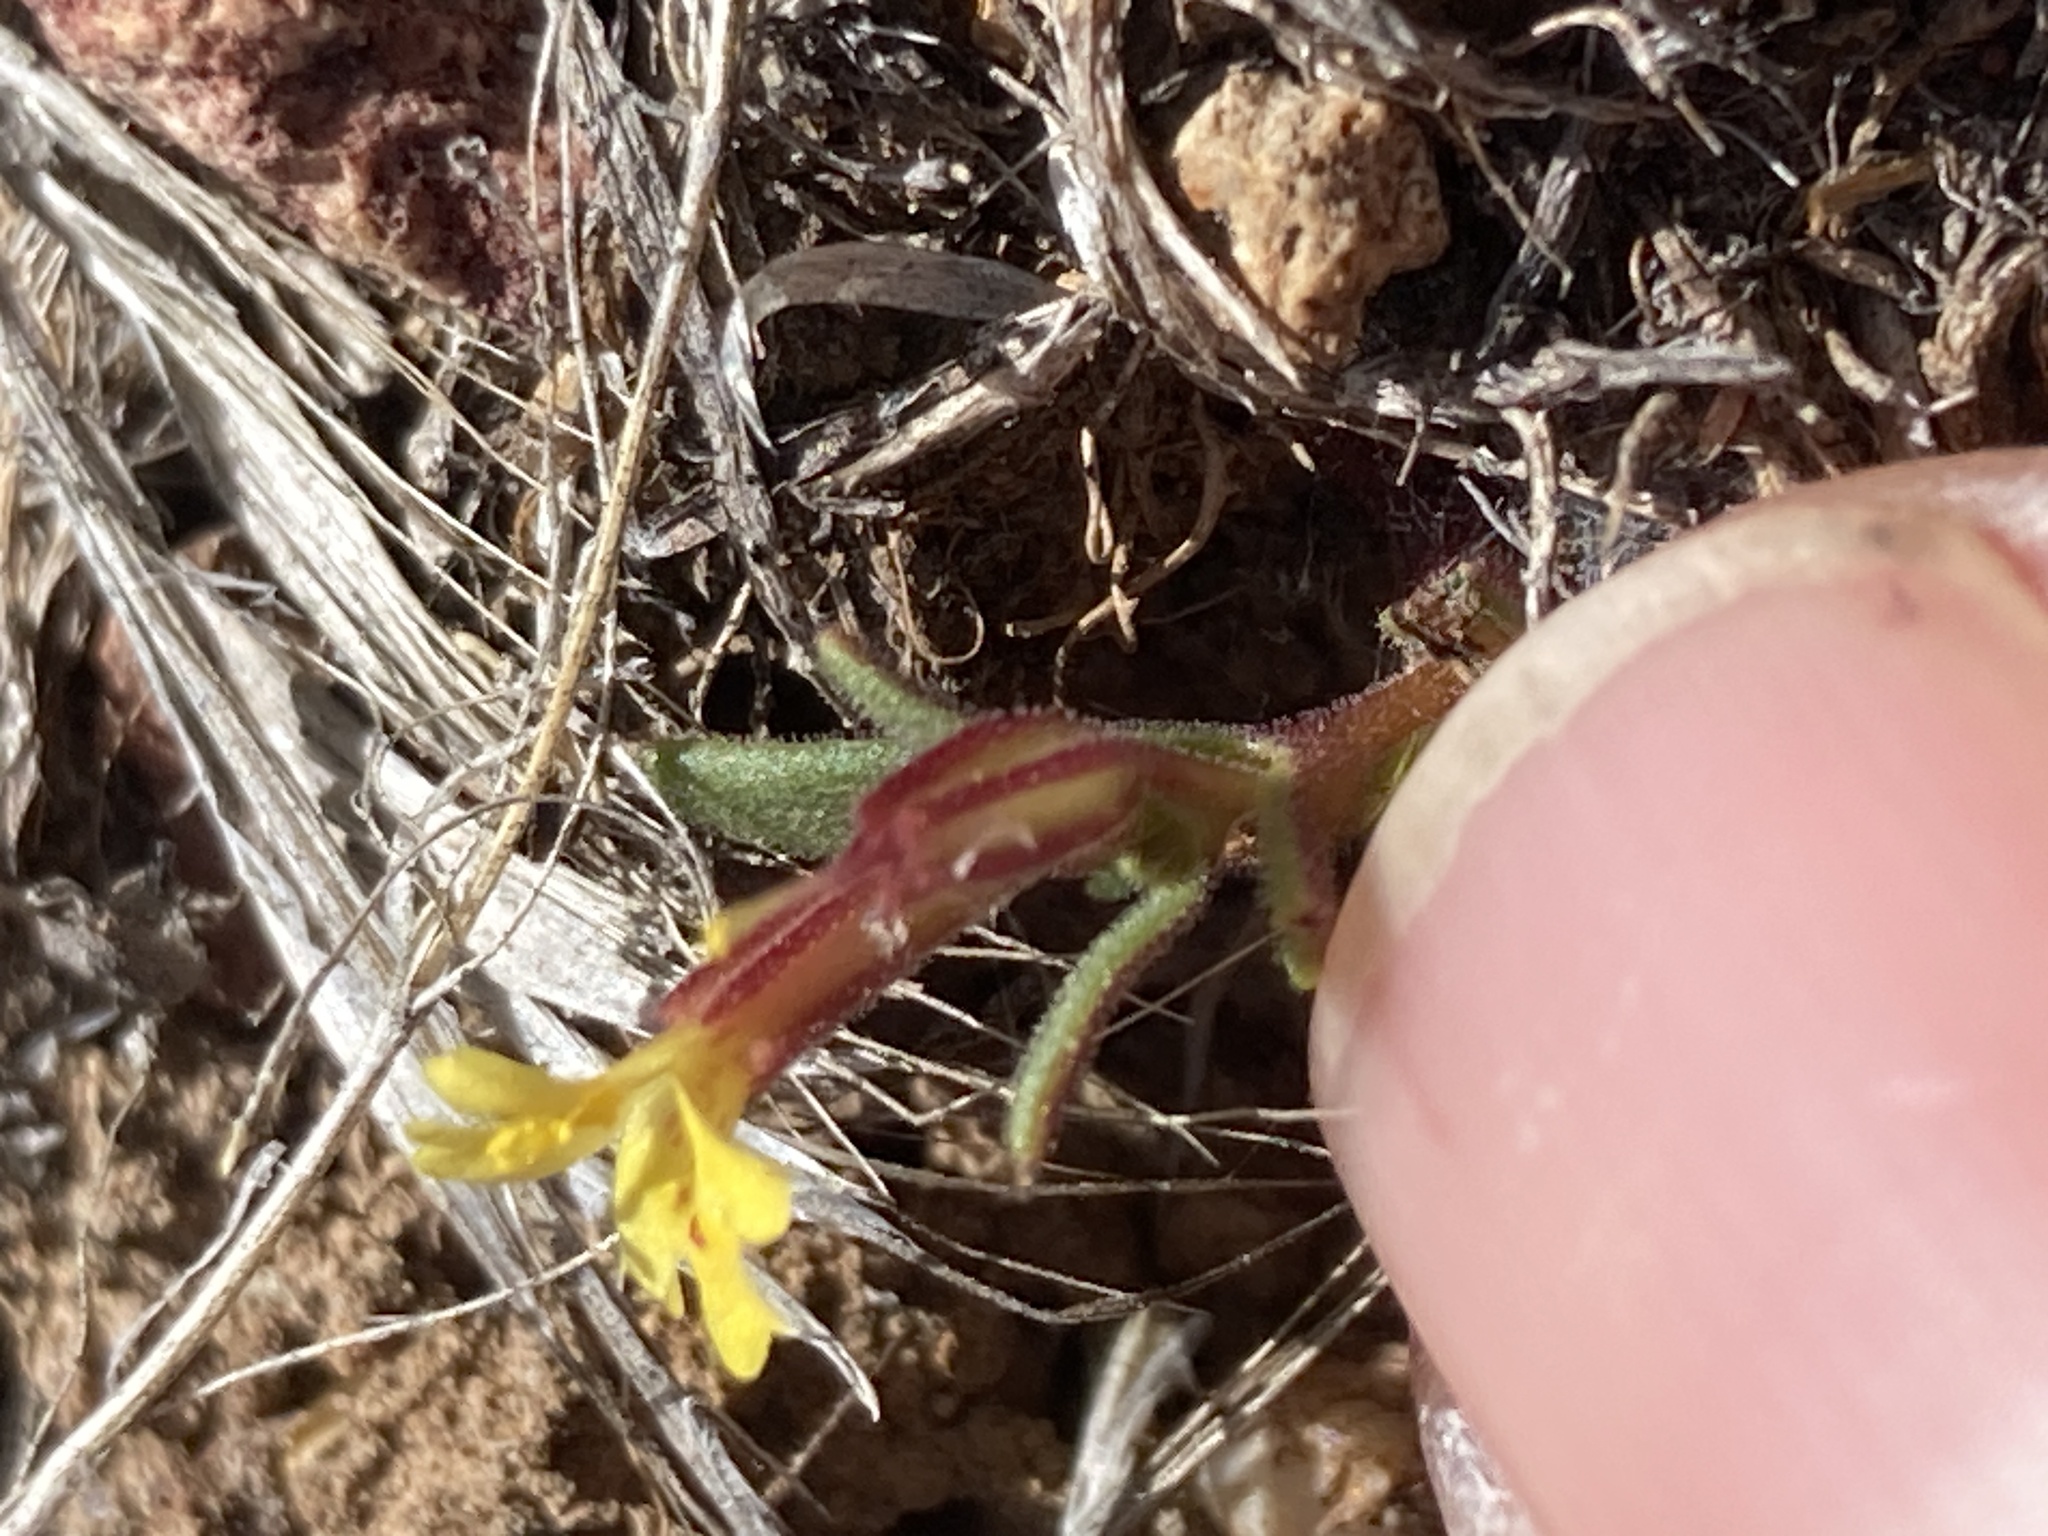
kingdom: Plantae
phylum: Tracheophyta
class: Magnoliopsida
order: Lamiales
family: Phrymaceae
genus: Erythranthe
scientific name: Erythranthe suksdorfii
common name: Suksdorf's monkeyflower
